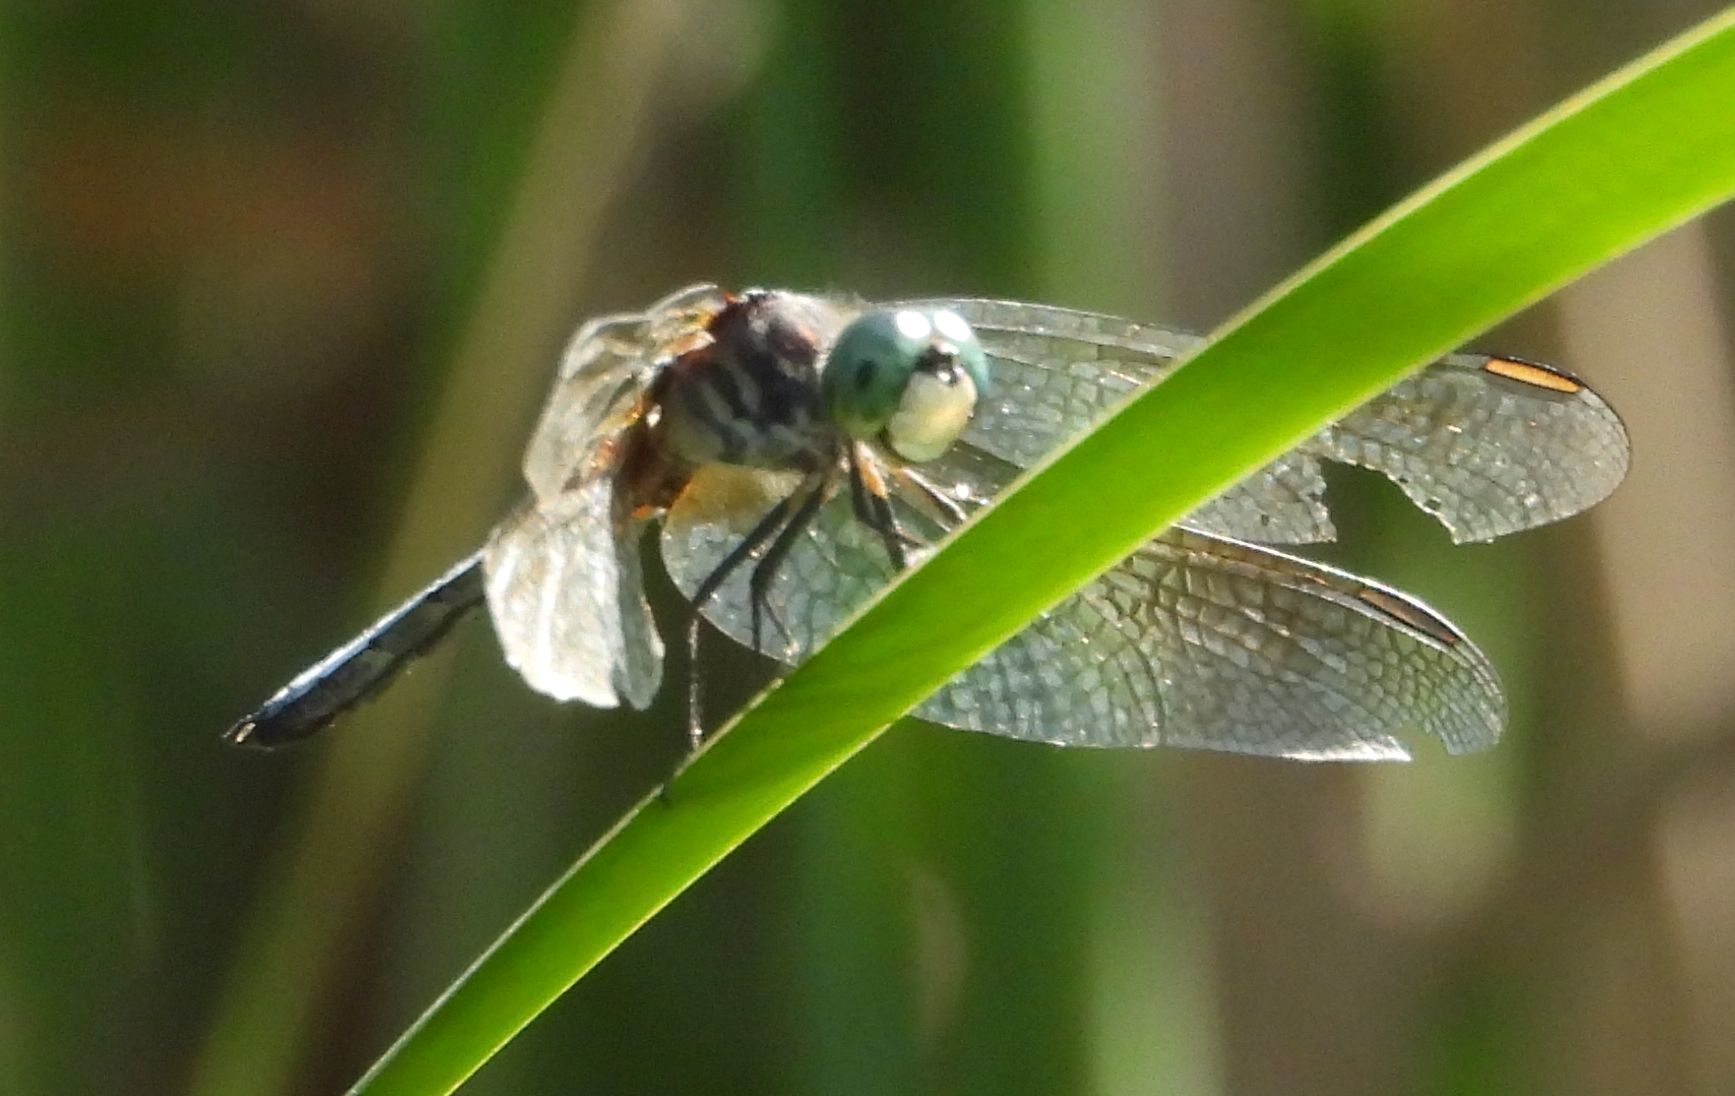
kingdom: Animalia
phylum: Arthropoda
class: Insecta
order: Odonata
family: Libellulidae
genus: Pachydiplax
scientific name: Pachydiplax longipennis
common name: Blue dasher
